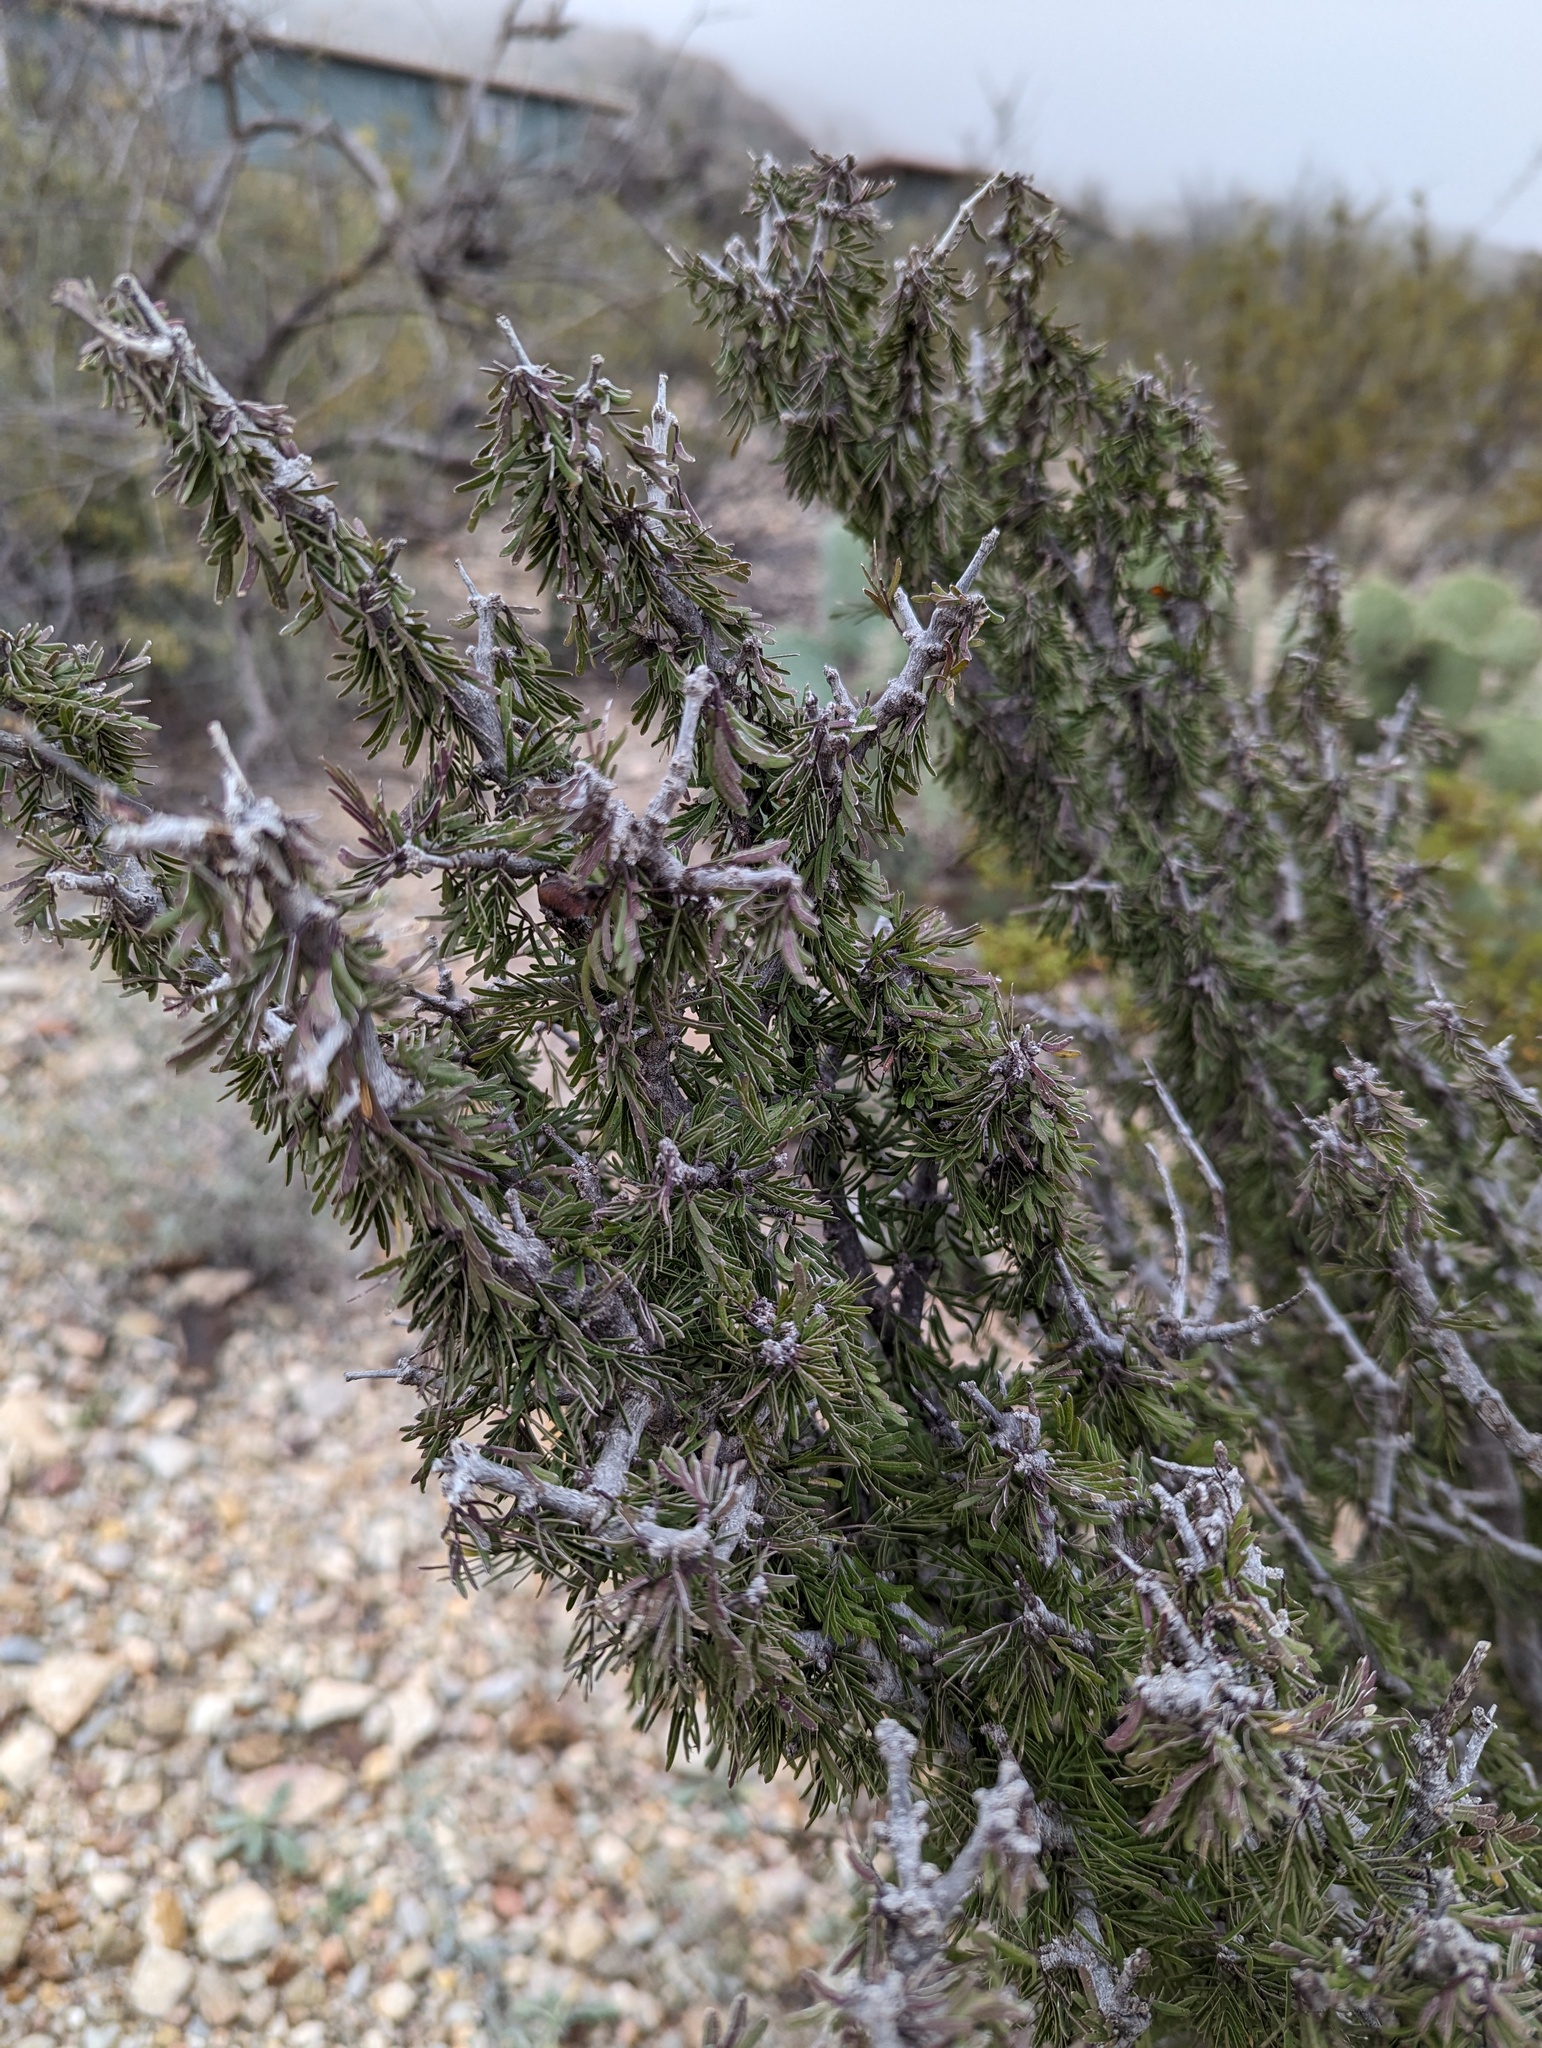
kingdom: Plantae
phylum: Tracheophyta
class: Magnoliopsida
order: Zygophyllales
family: Zygophyllaceae
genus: Porlieria
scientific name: Porlieria angustifolia
